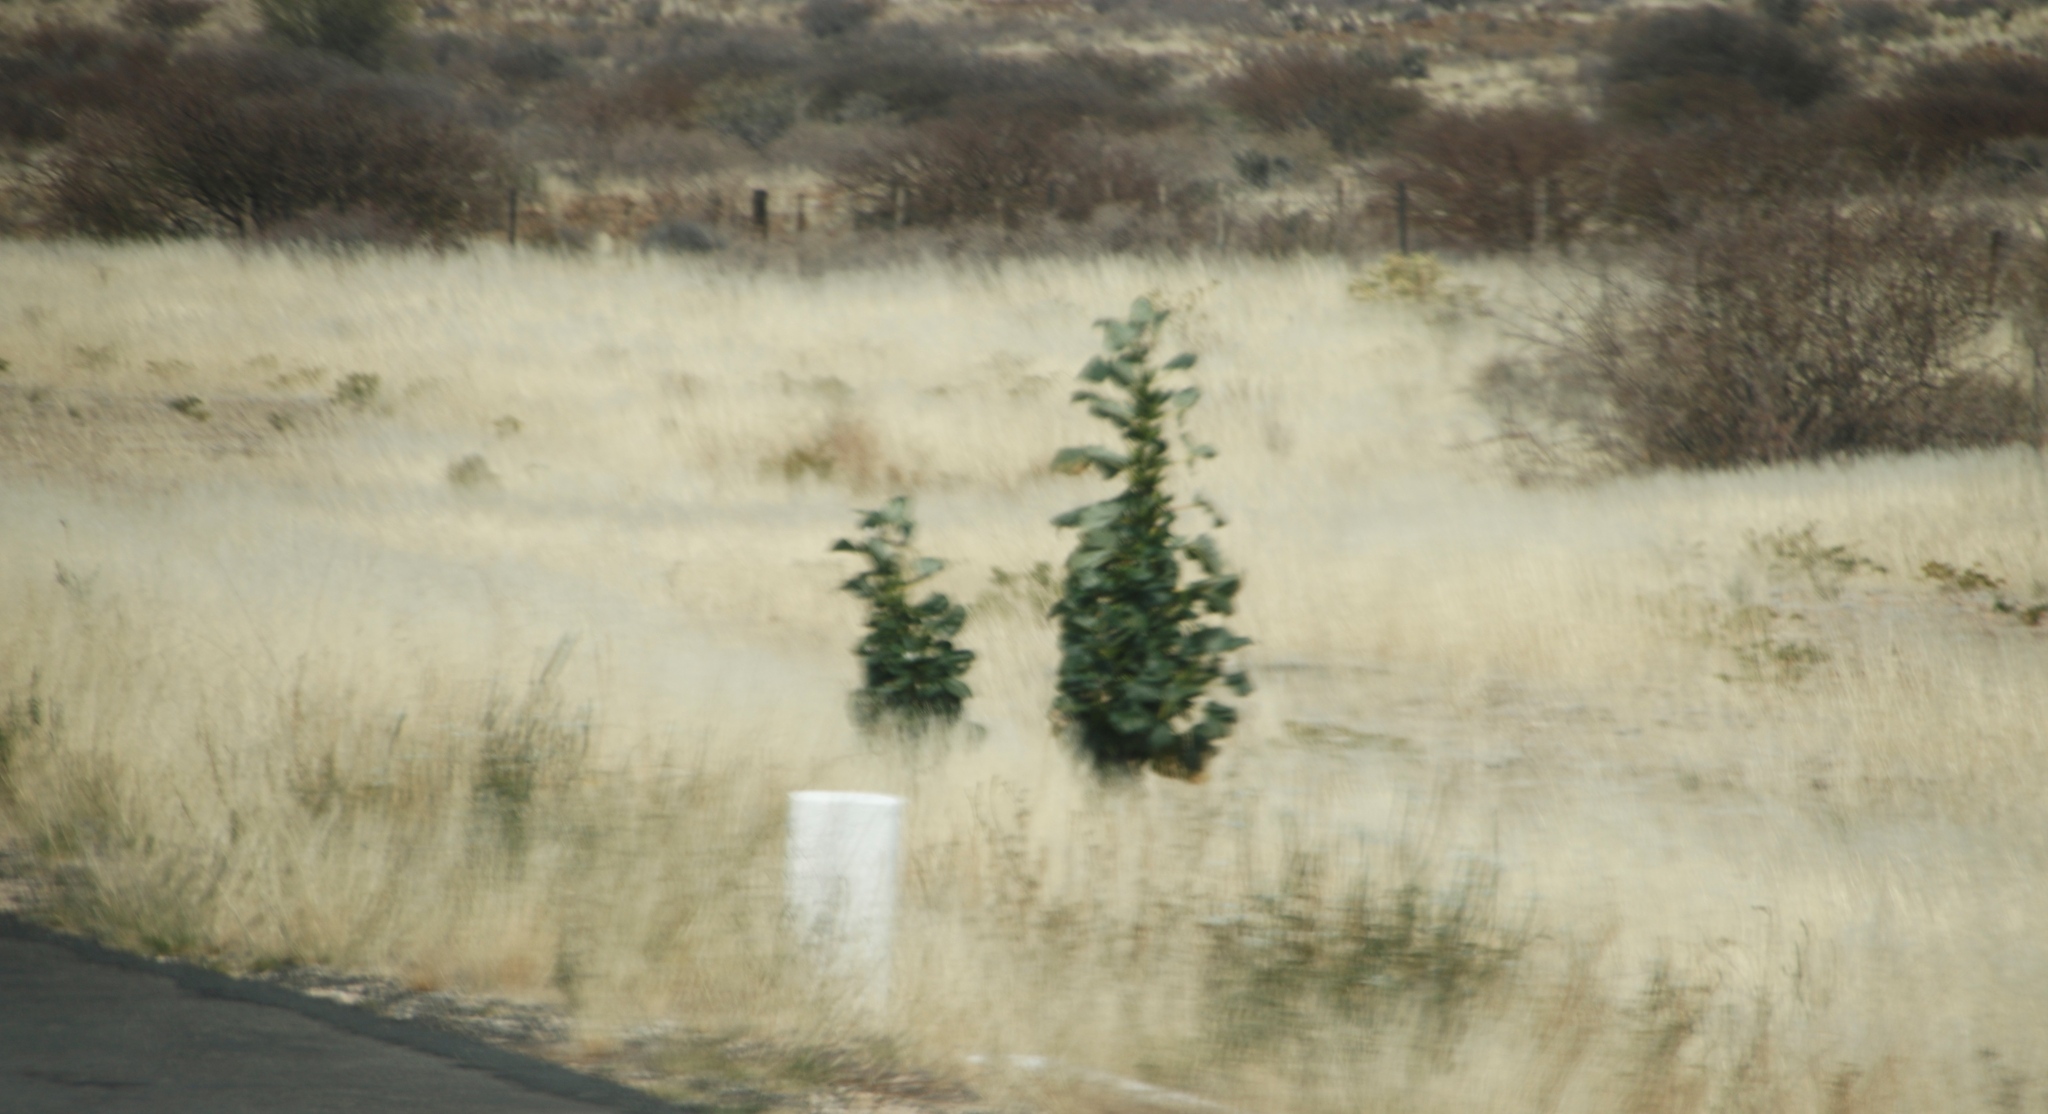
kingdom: Plantae
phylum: Tracheophyta
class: Magnoliopsida
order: Lamiales
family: Pedaliaceae
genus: Rogeria
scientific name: Rogeria longiflora
